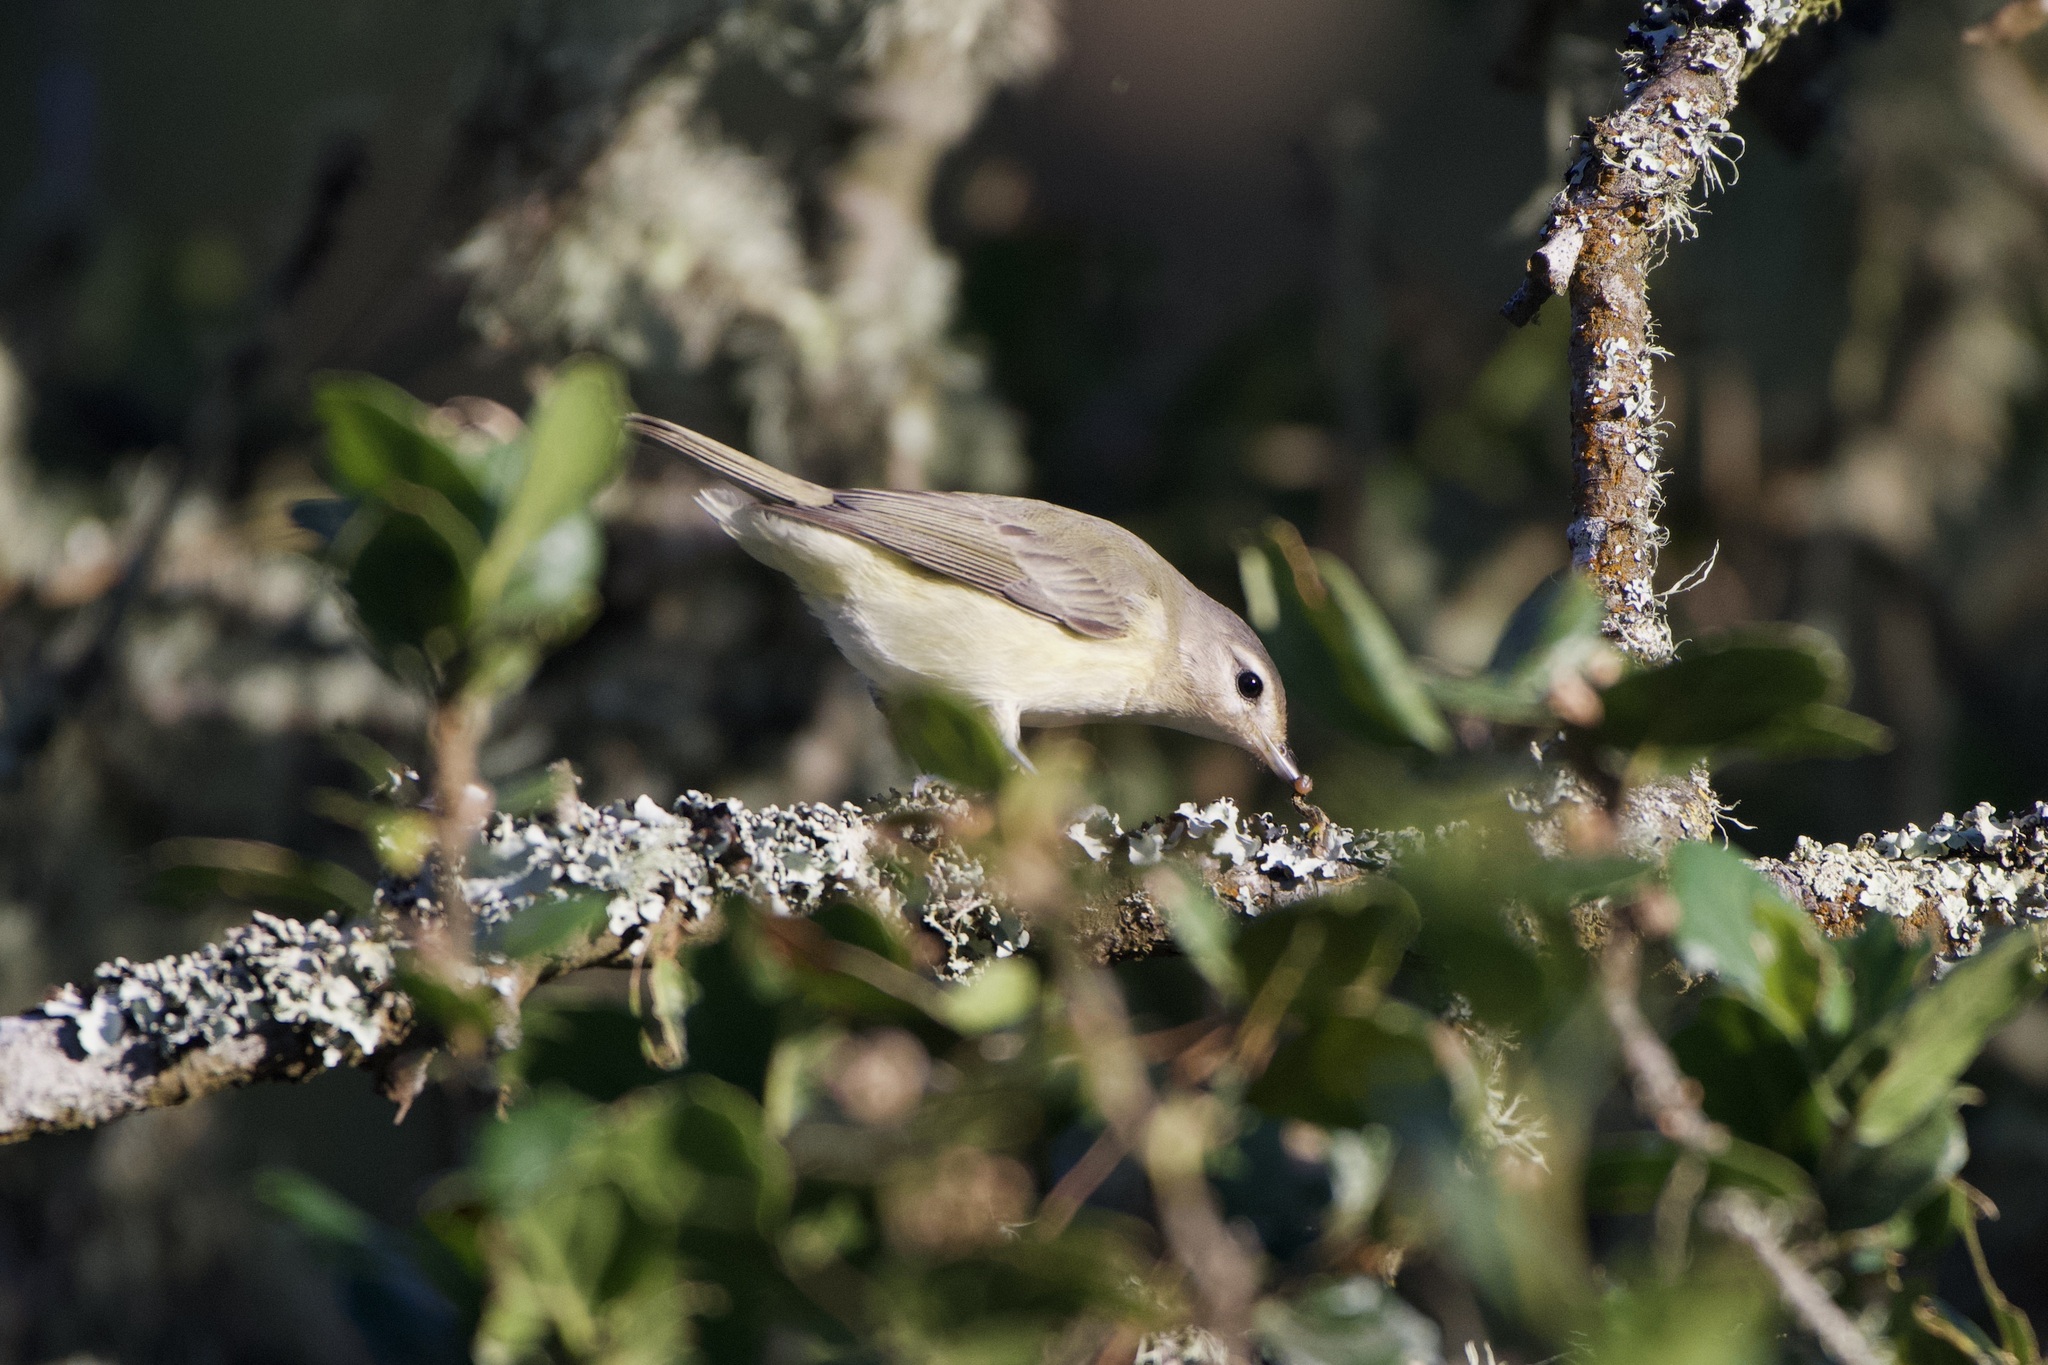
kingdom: Animalia
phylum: Chordata
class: Aves
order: Passeriformes
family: Vireonidae
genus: Vireo
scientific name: Vireo gilvus
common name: Warbling vireo
